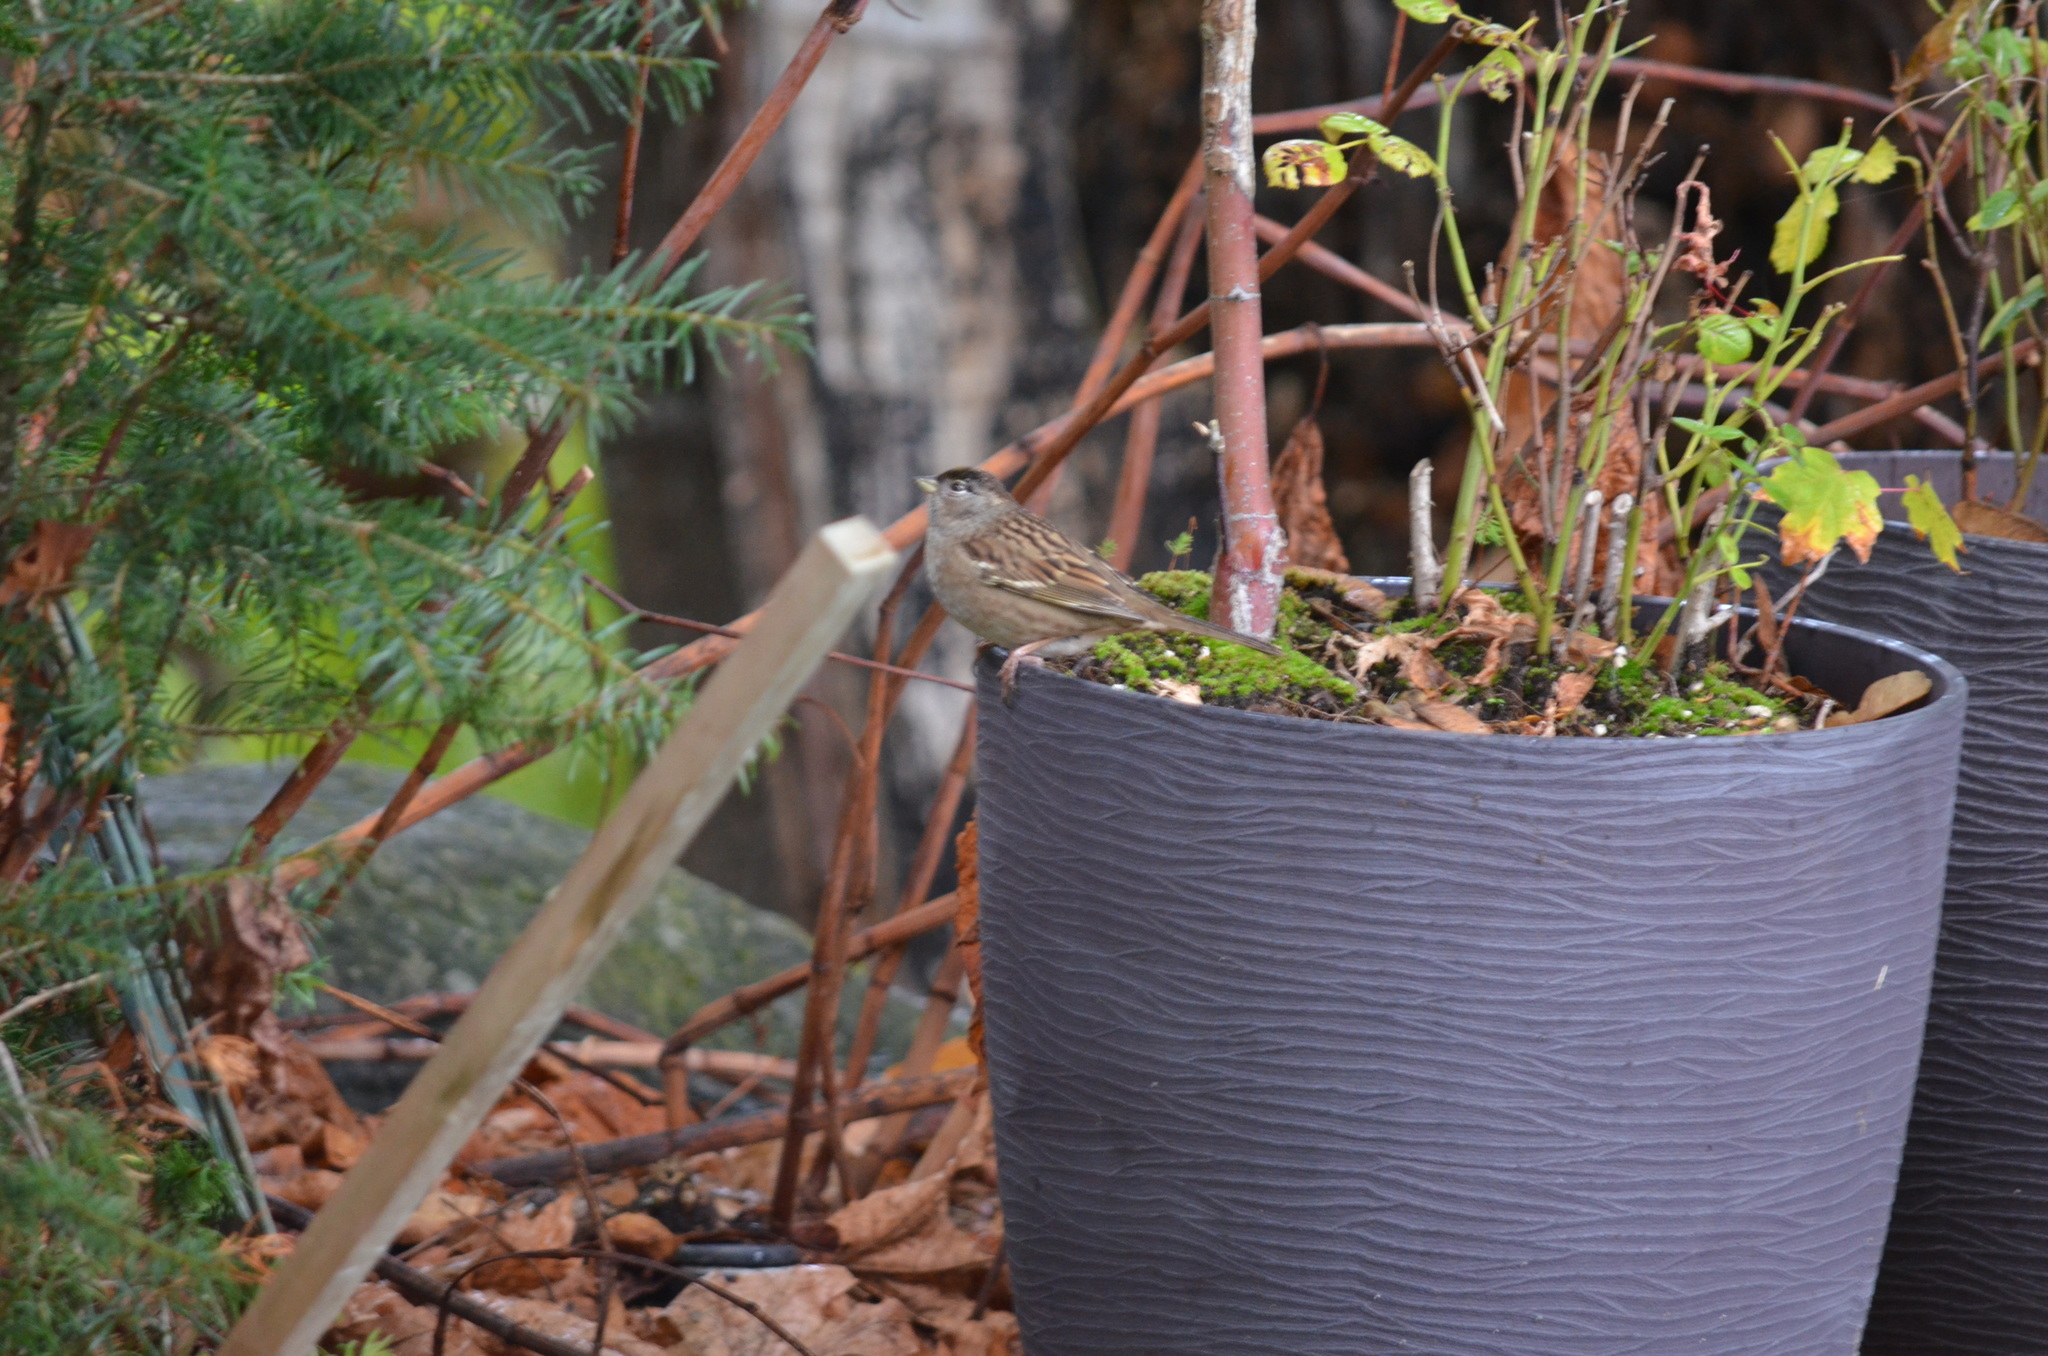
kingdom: Animalia
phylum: Chordata
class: Aves
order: Passeriformes
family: Passerellidae
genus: Zonotrichia
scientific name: Zonotrichia atricapilla
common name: Golden-crowned sparrow
